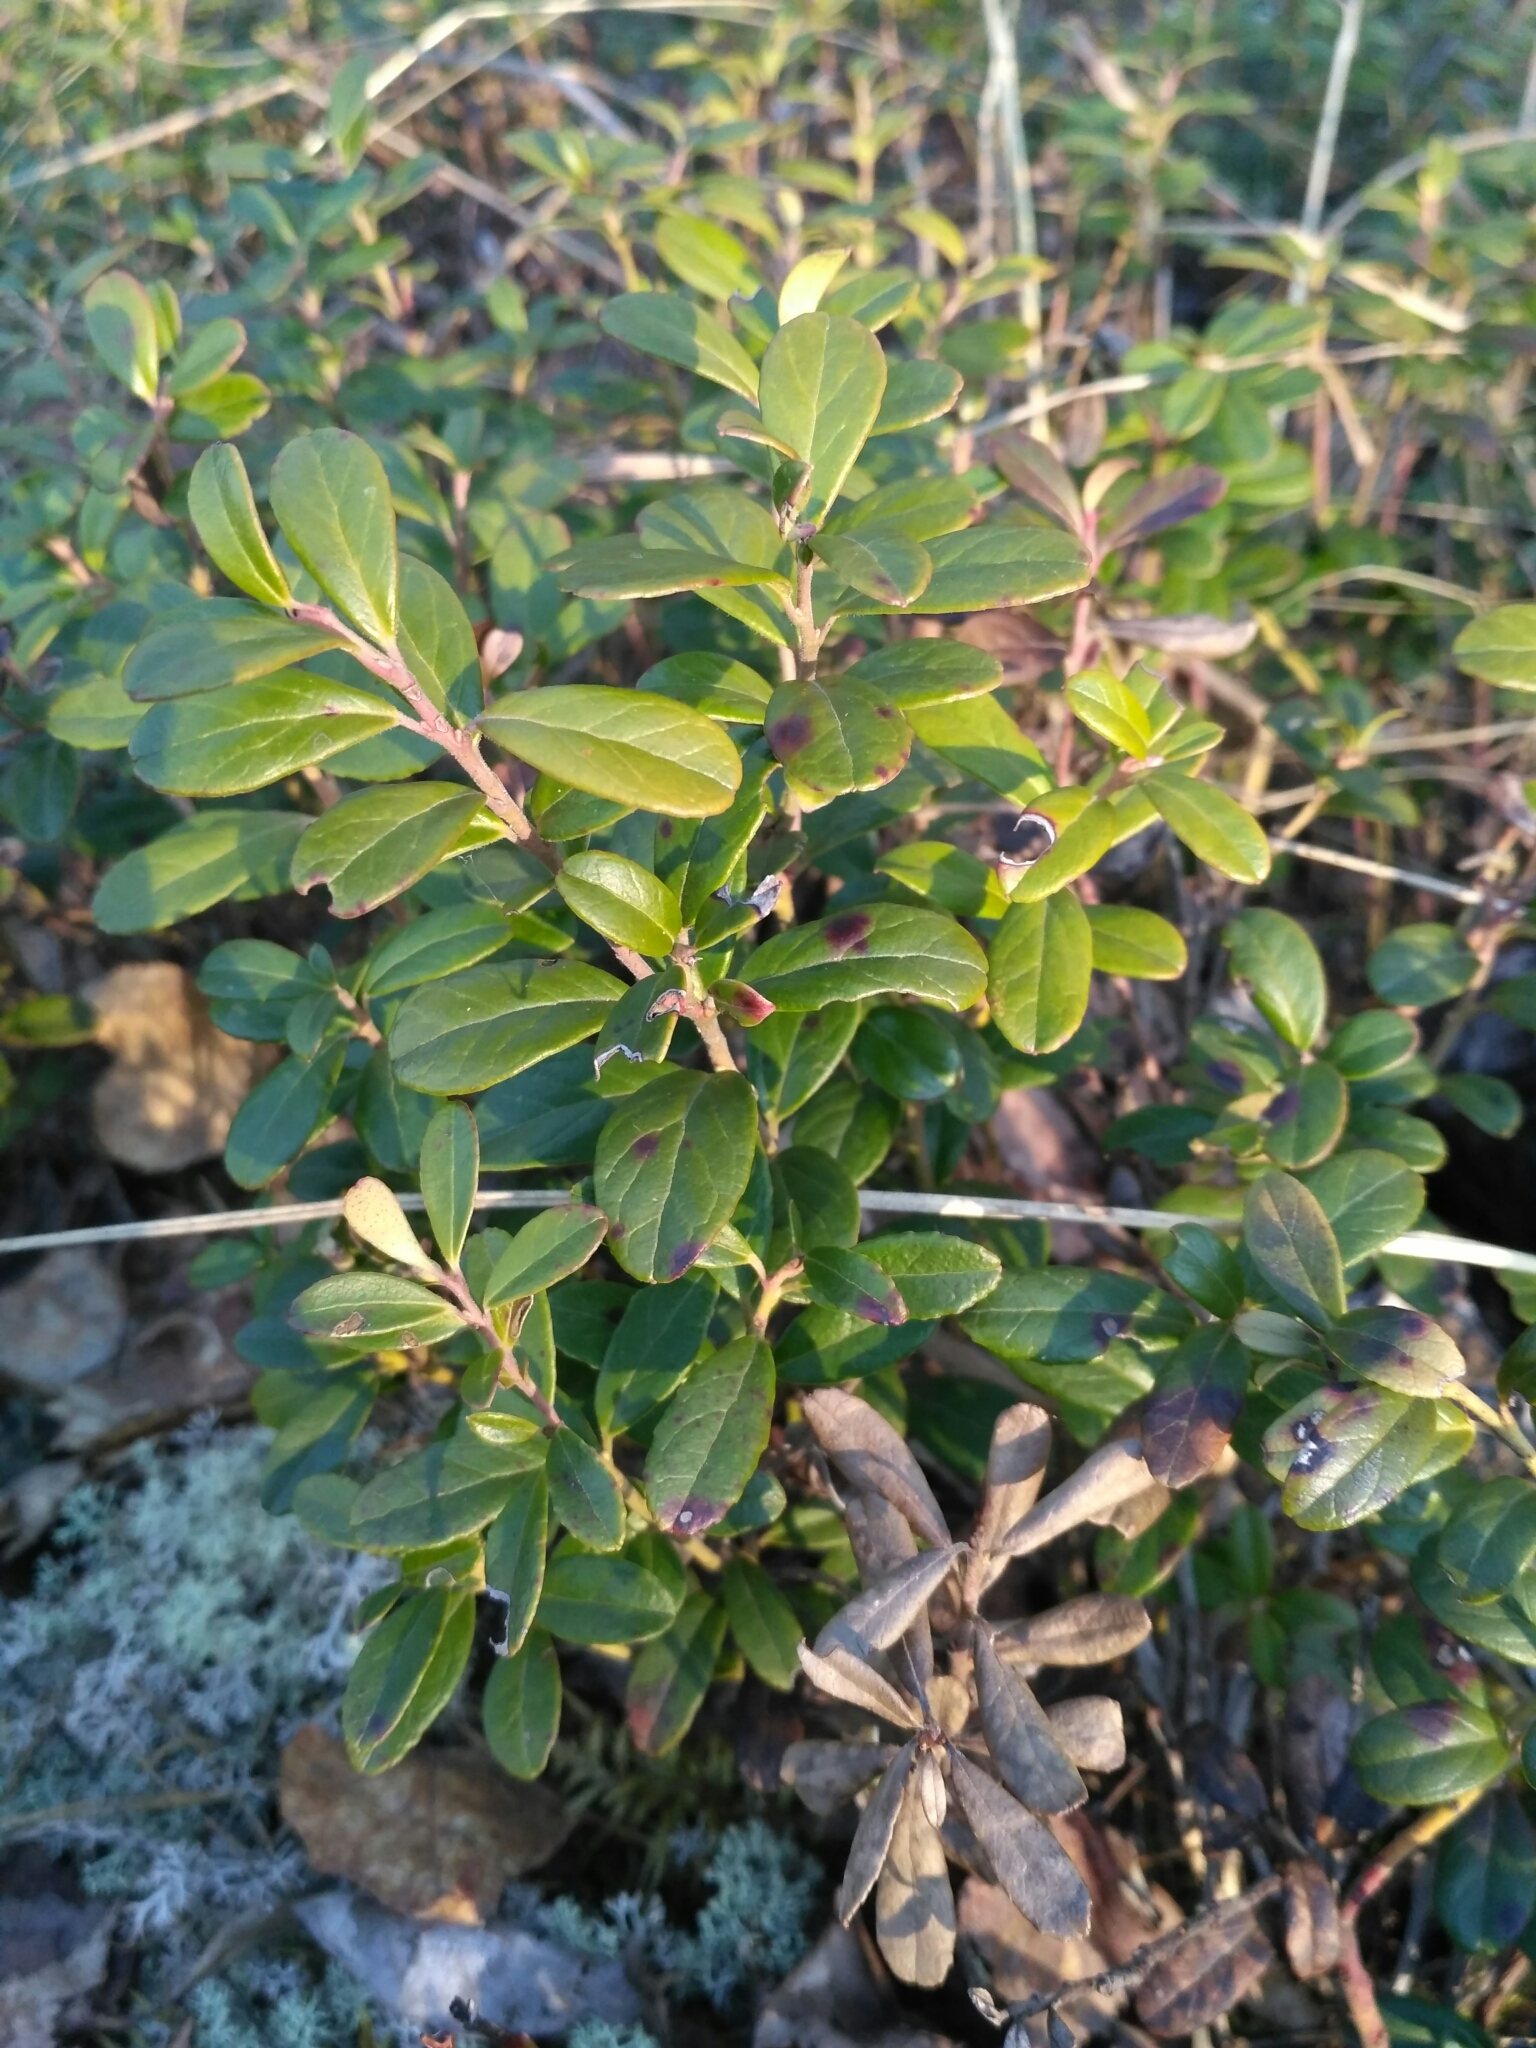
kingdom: Plantae
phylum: Tracheophyta
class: Magnoliopsida
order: Ericales
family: Ericaceae
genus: Vaccinium
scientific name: Vaccinium vitis-idaea
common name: Cowberry
